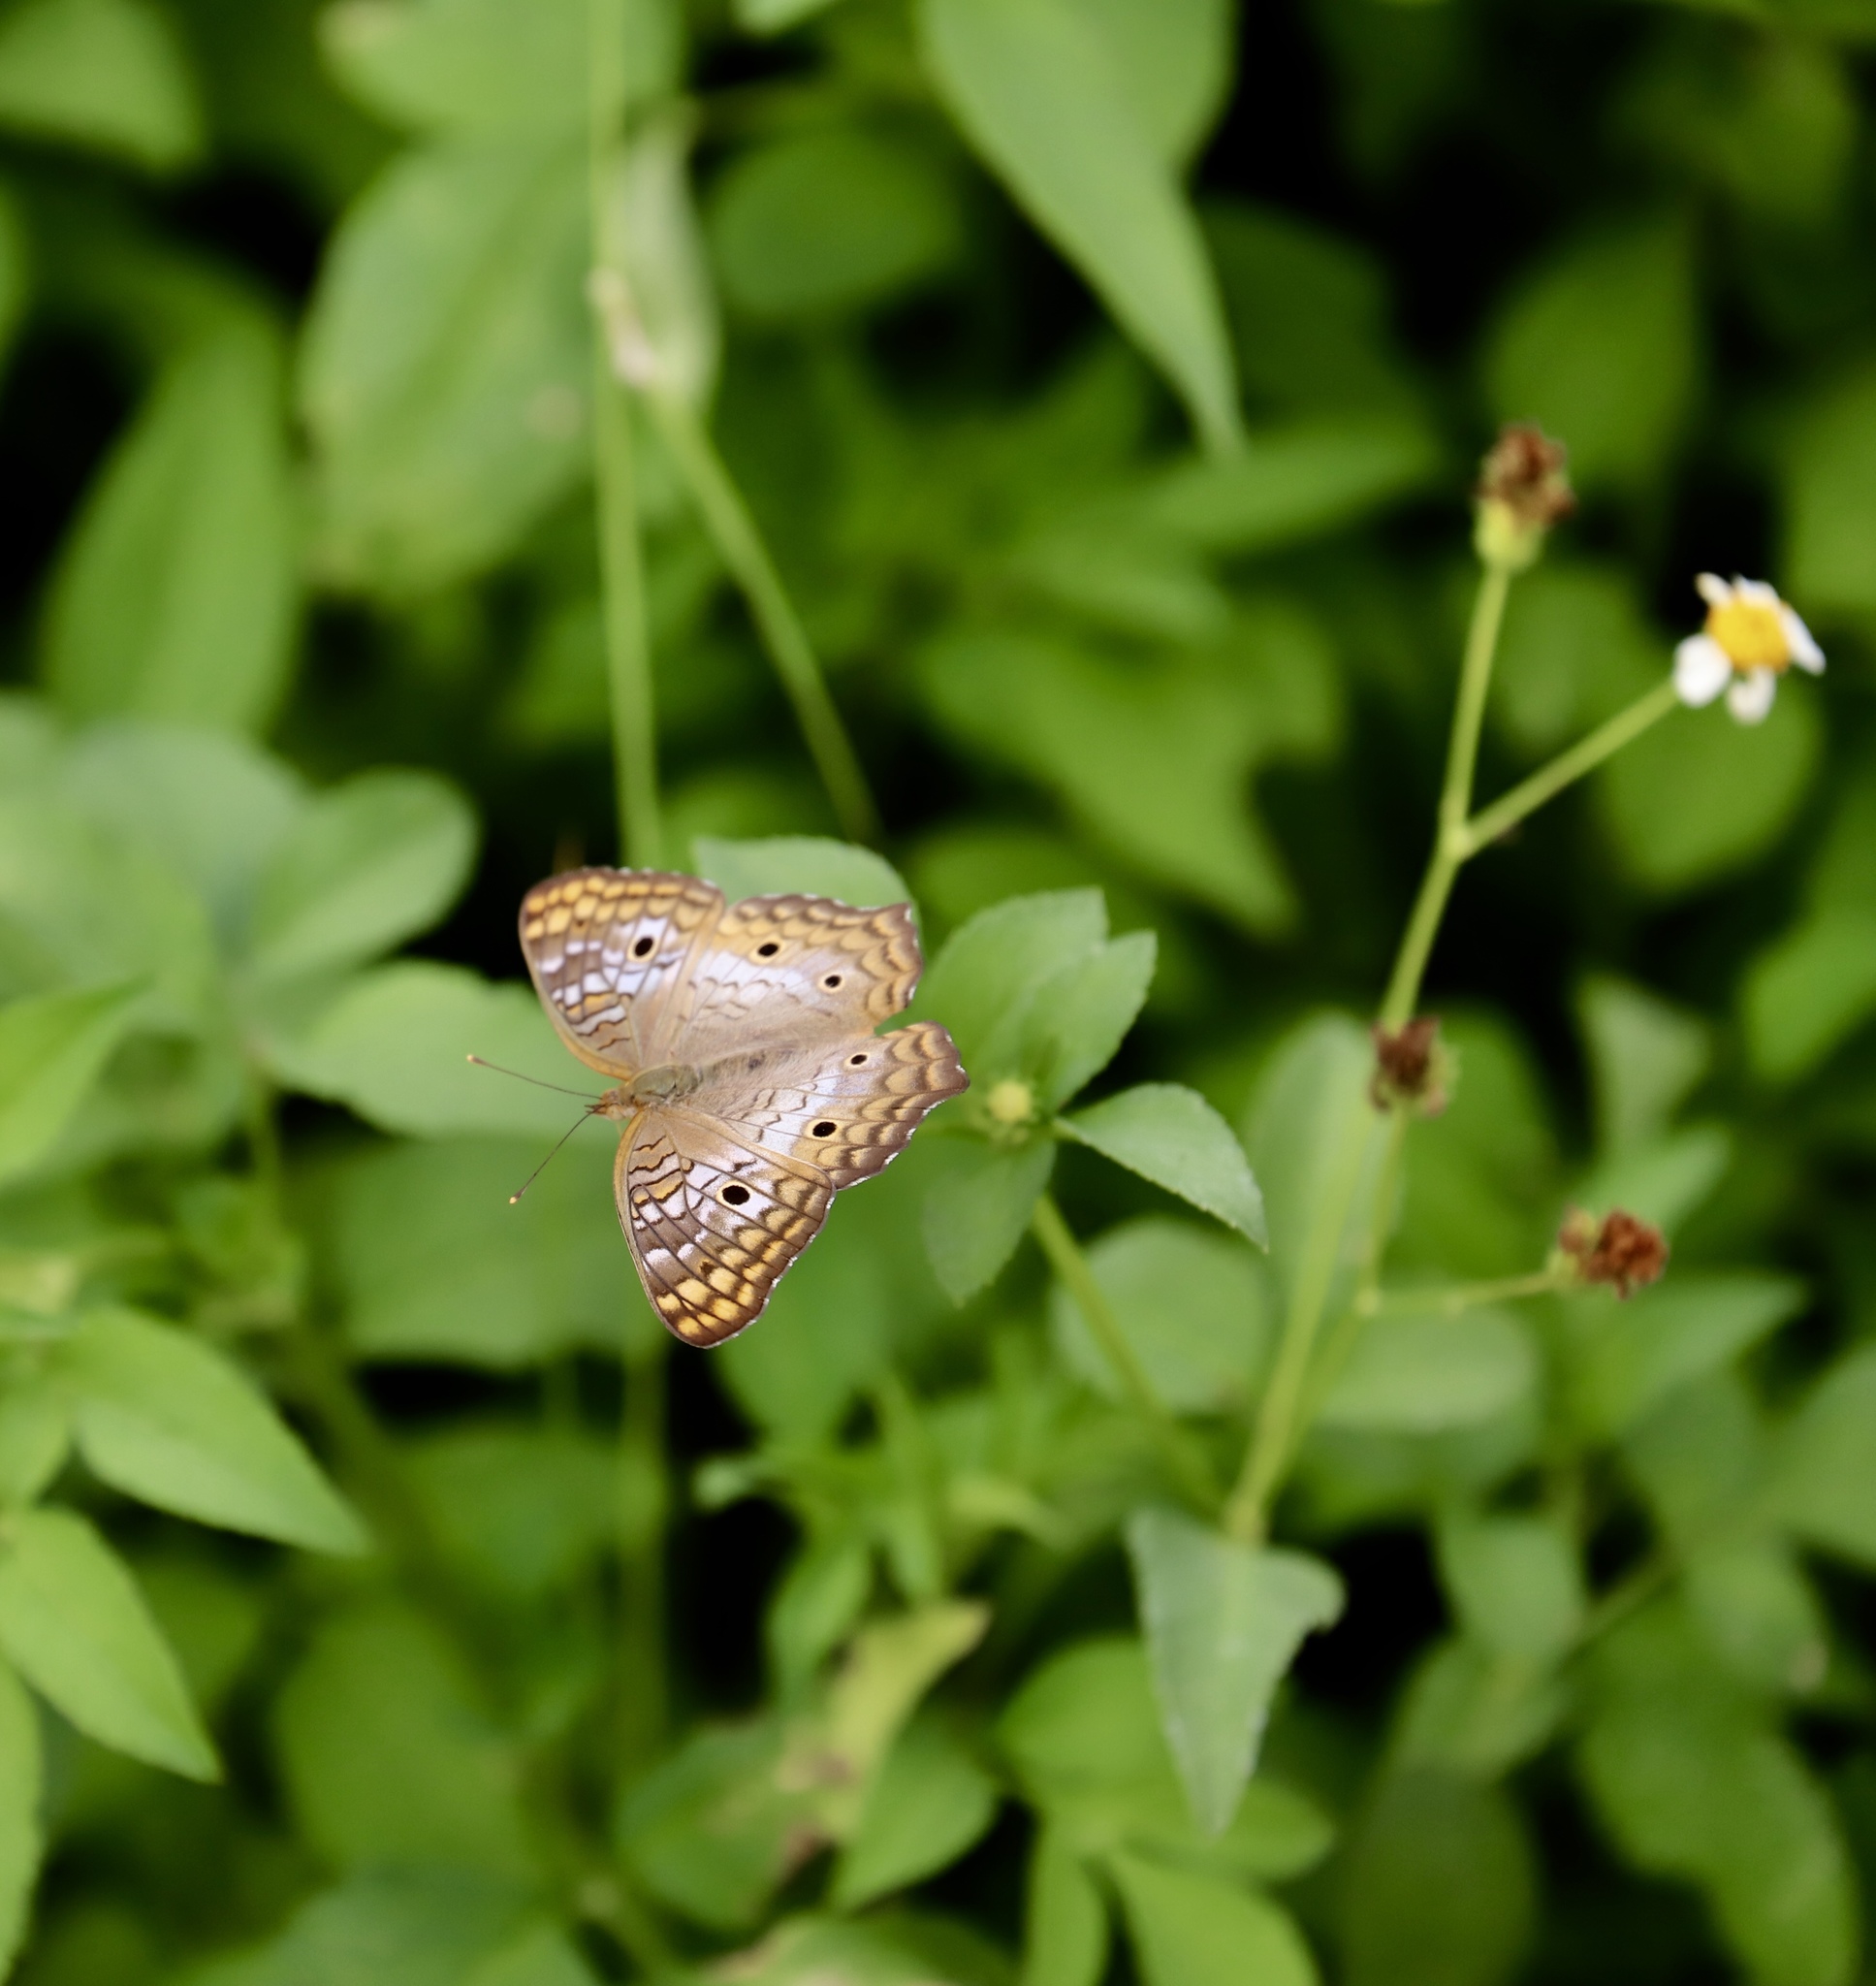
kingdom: Animalia
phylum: Arthropoda
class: Insecta
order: Lepidoptera
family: Nymphalidae
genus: Anartia
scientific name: Anartia jatrophae
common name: White peacock
